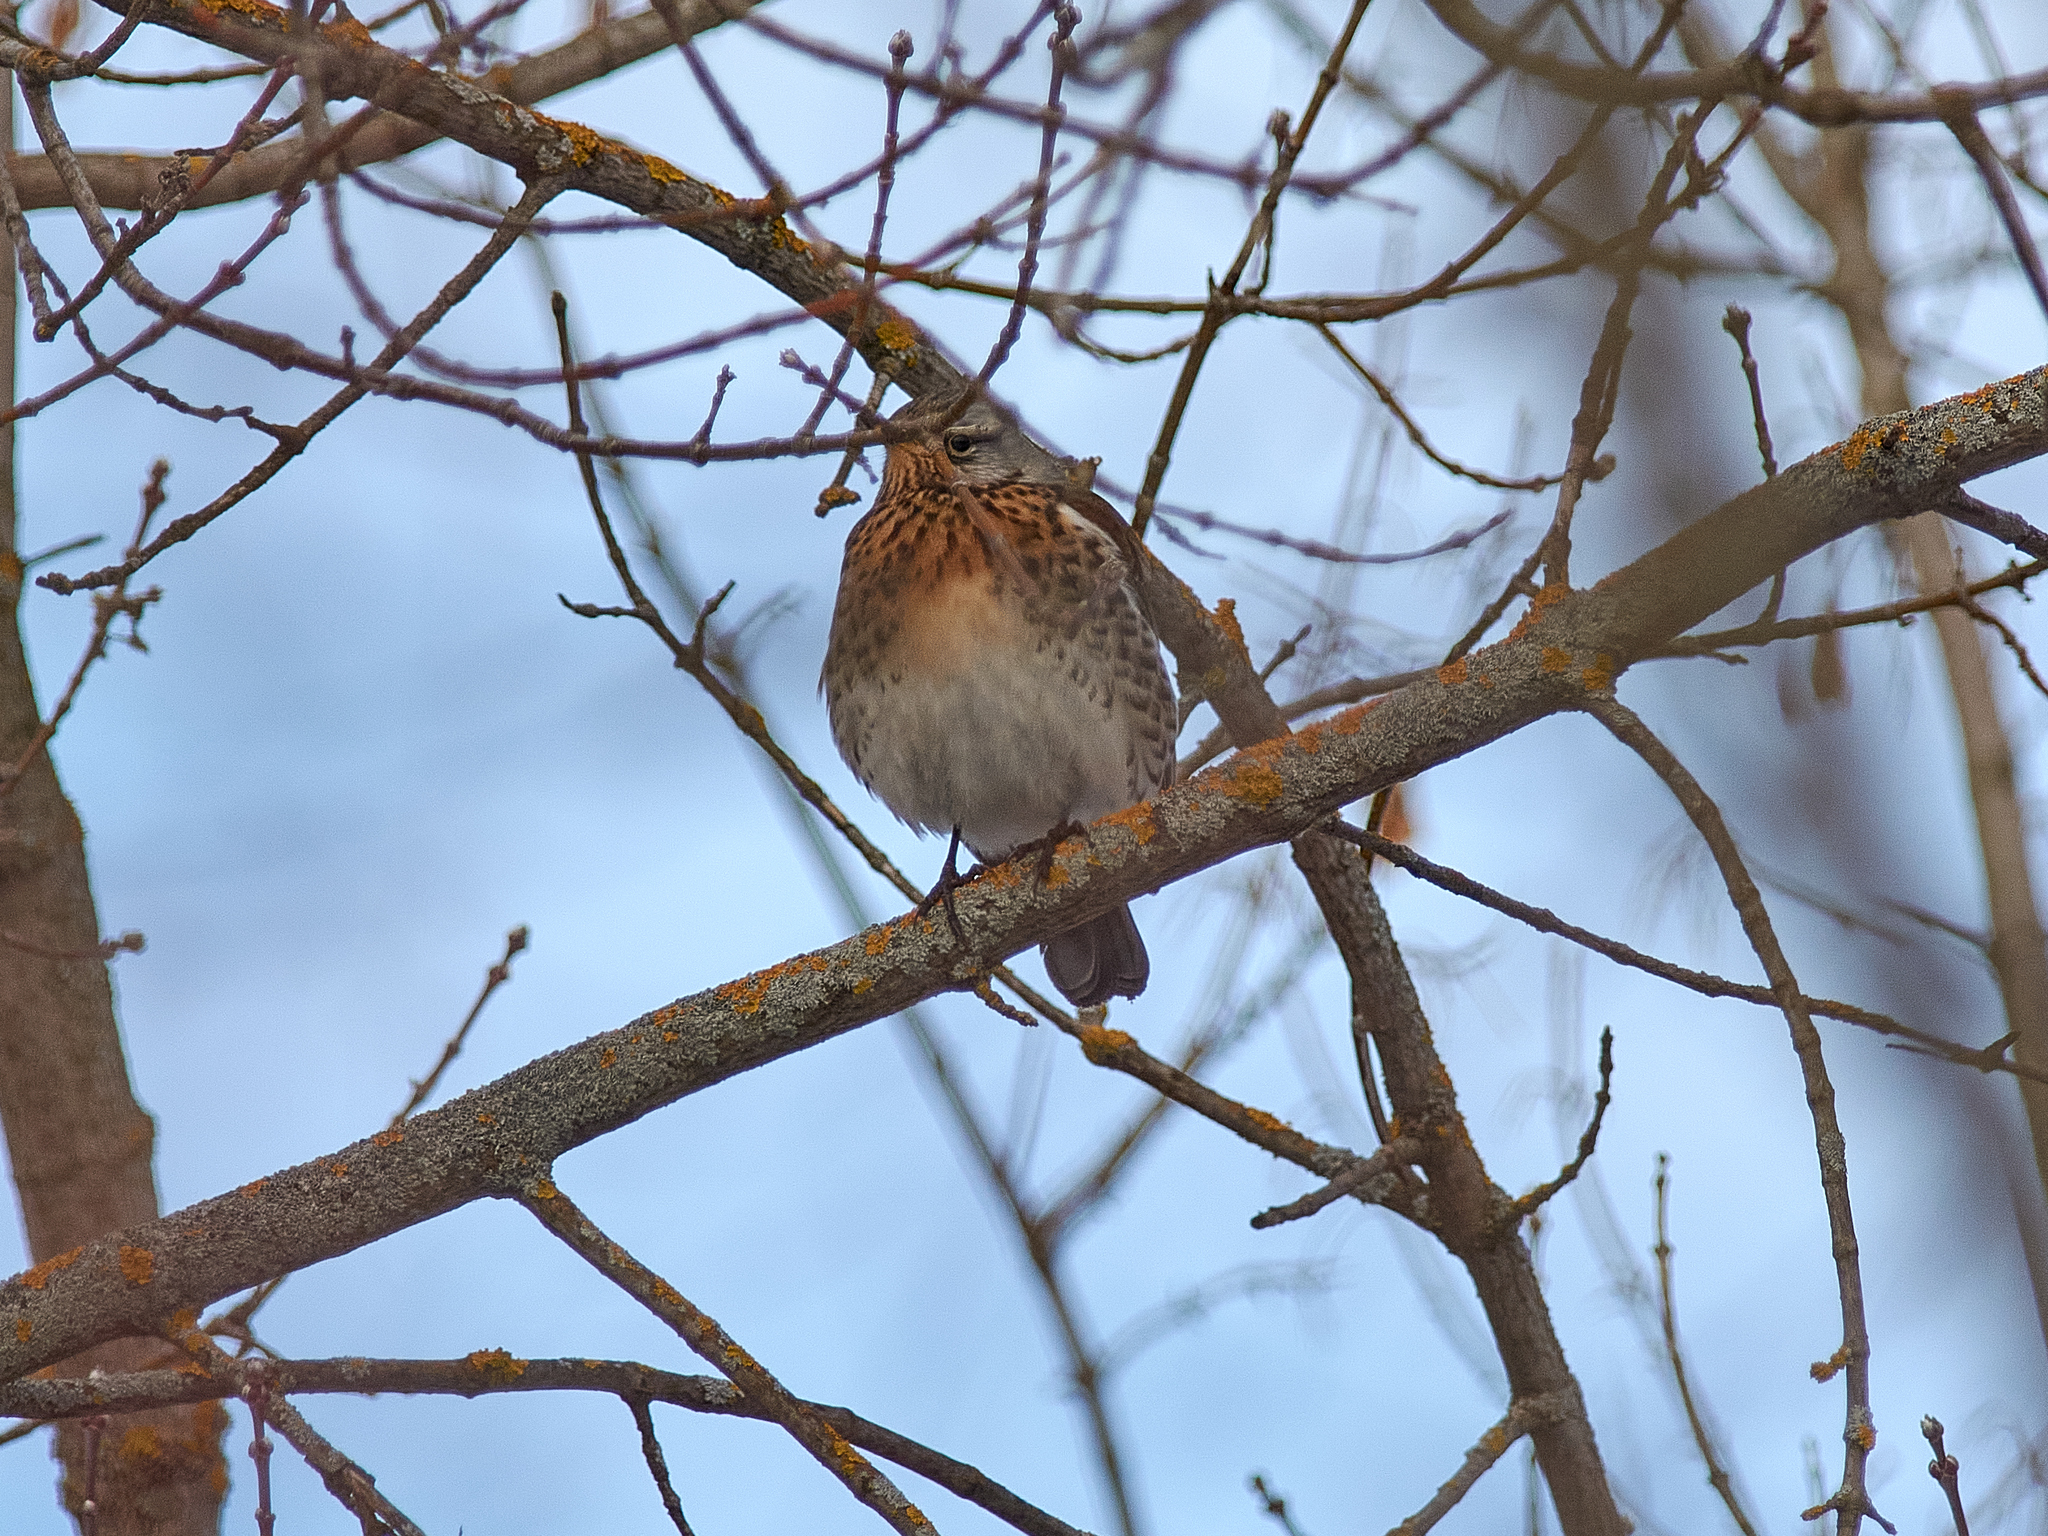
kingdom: Animalia
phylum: Chordata
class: Aves
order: Passeriformes
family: Turdidae
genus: Turdus
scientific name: Turdus pilaris
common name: Fieldfare
